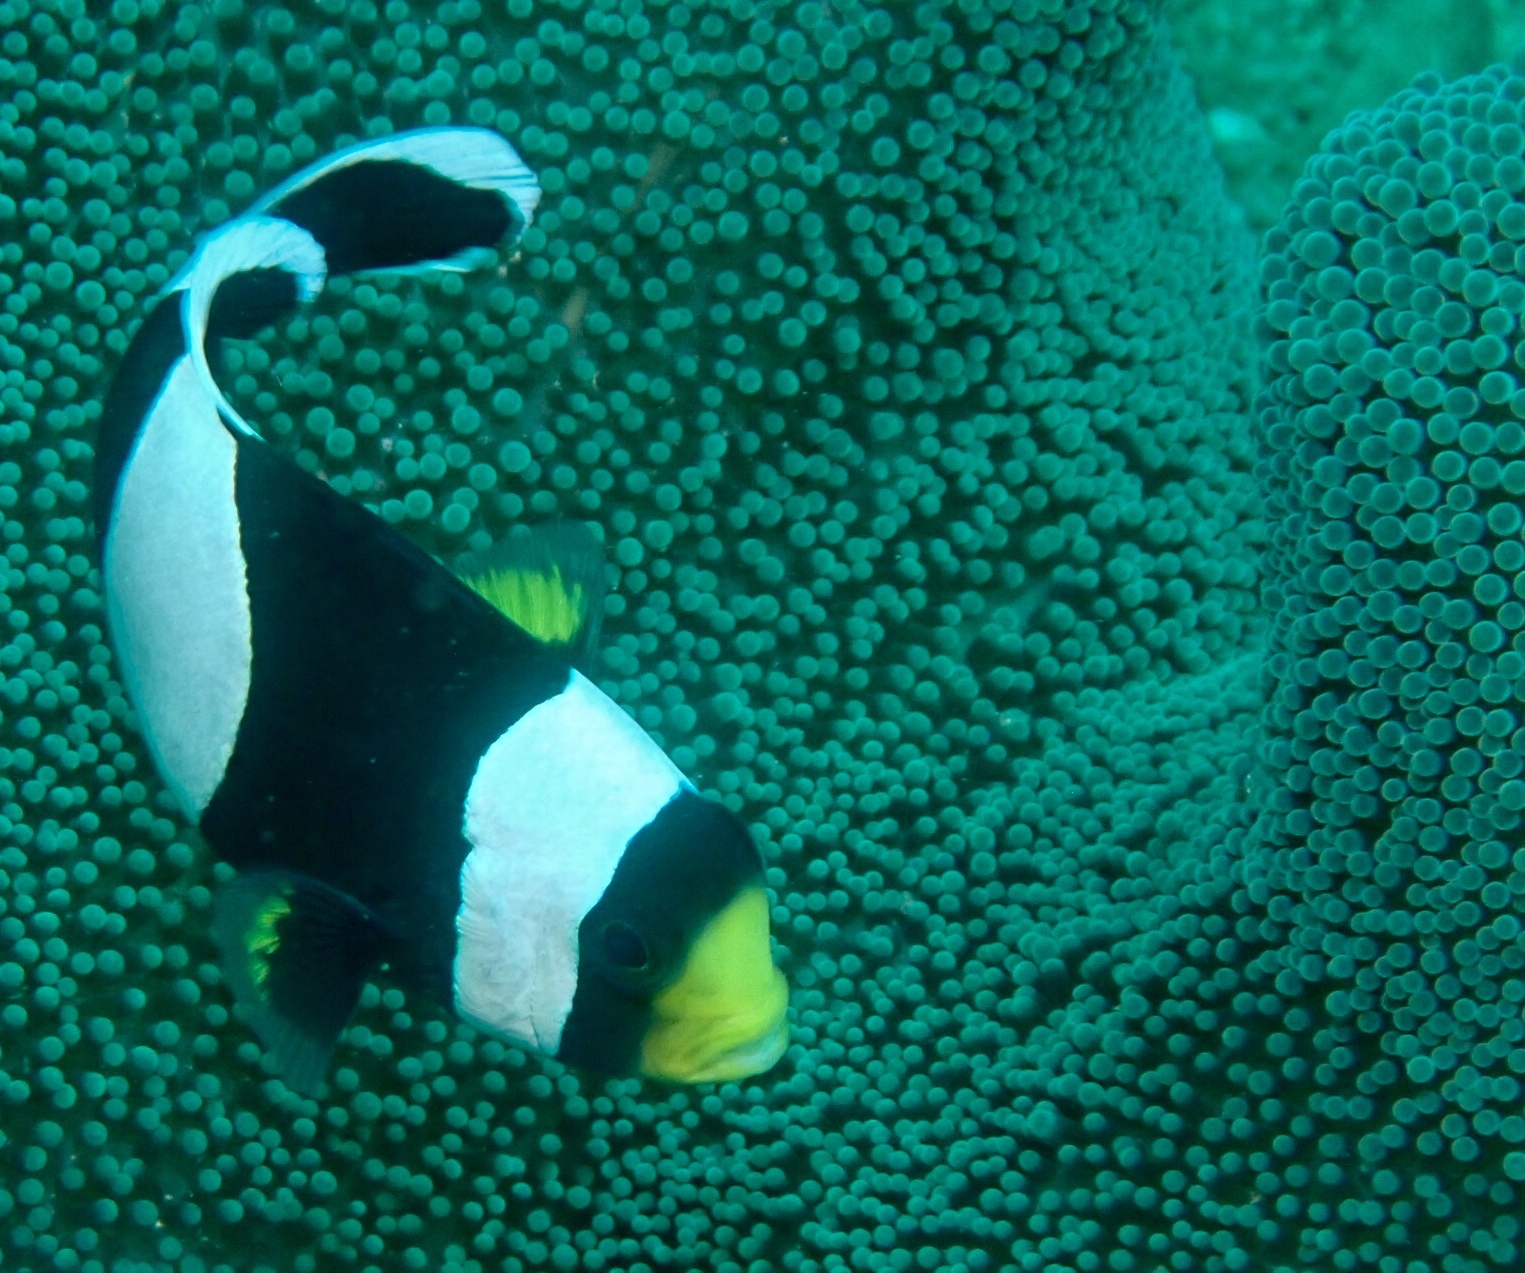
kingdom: Animalia
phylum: Chordata
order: Perciformes
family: Pomacentridae
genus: Amphiprion
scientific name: Amphiprion polymnus
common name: Saddleback anemonefish
